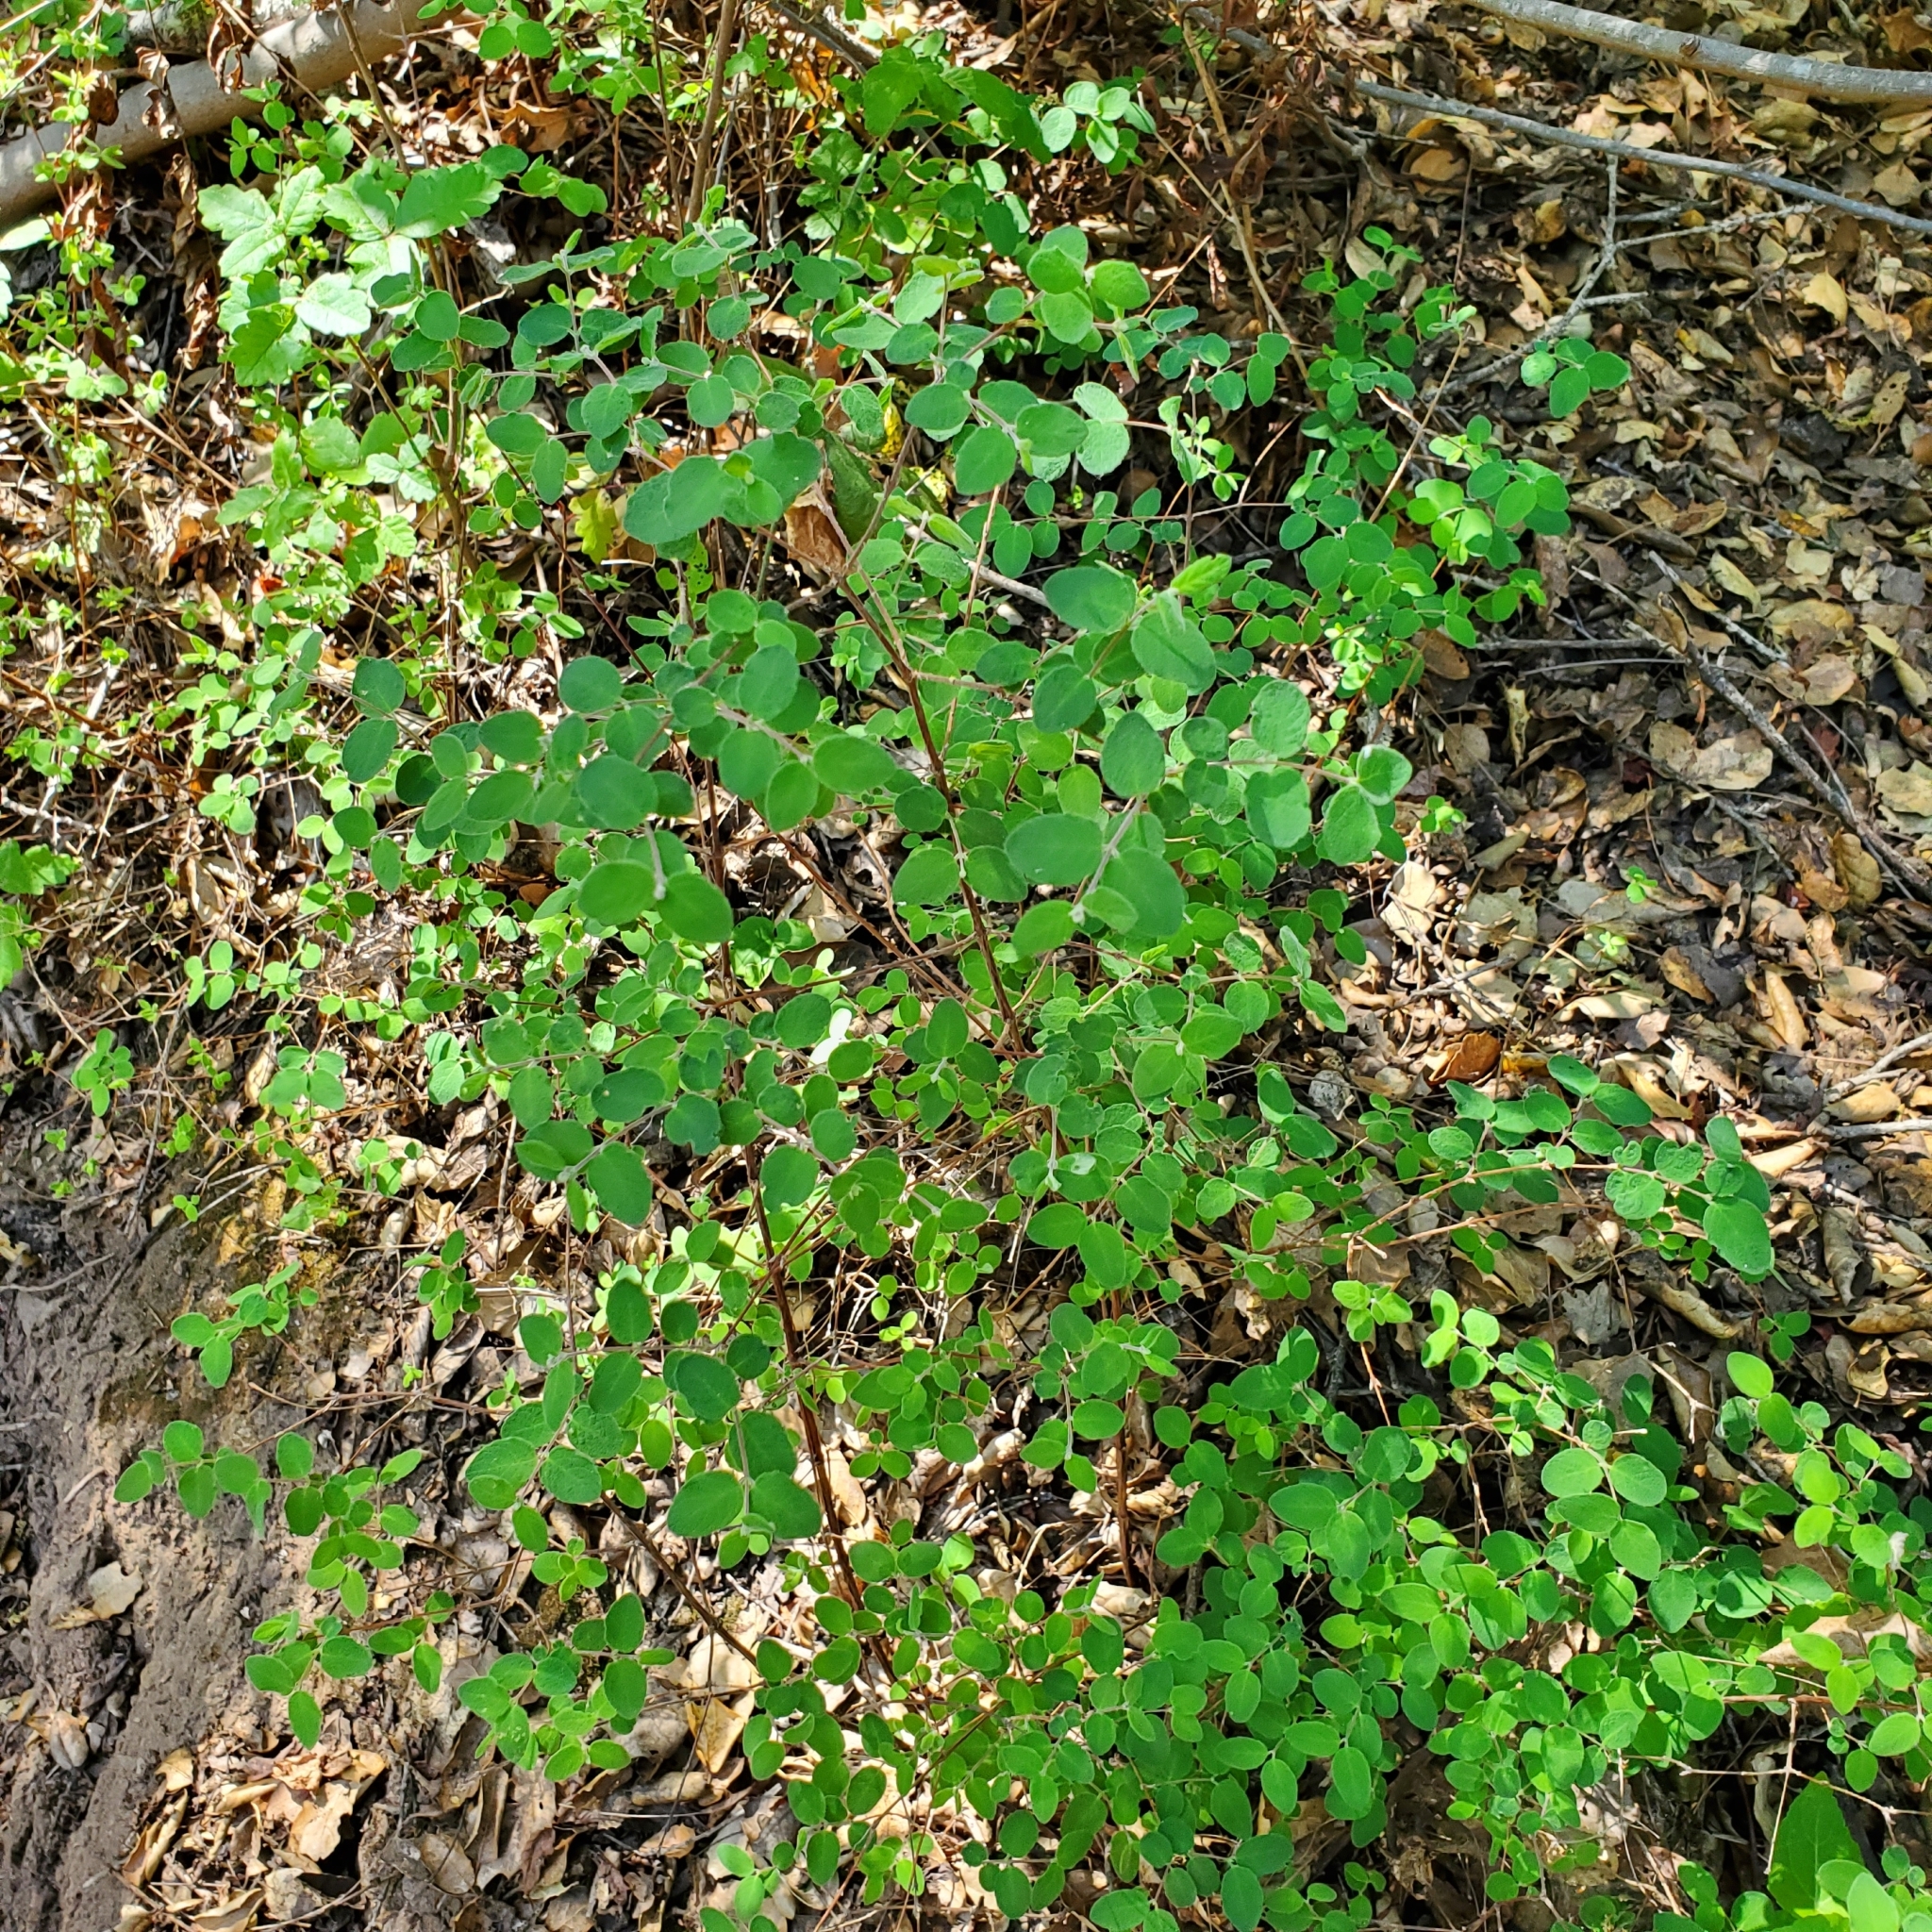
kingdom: Plantae
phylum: Tracheophyta
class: Magnoliopsida
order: Dipsacales
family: Caprifoliaceae
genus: Symphoricarpos
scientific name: Symphoricarpos mollis
